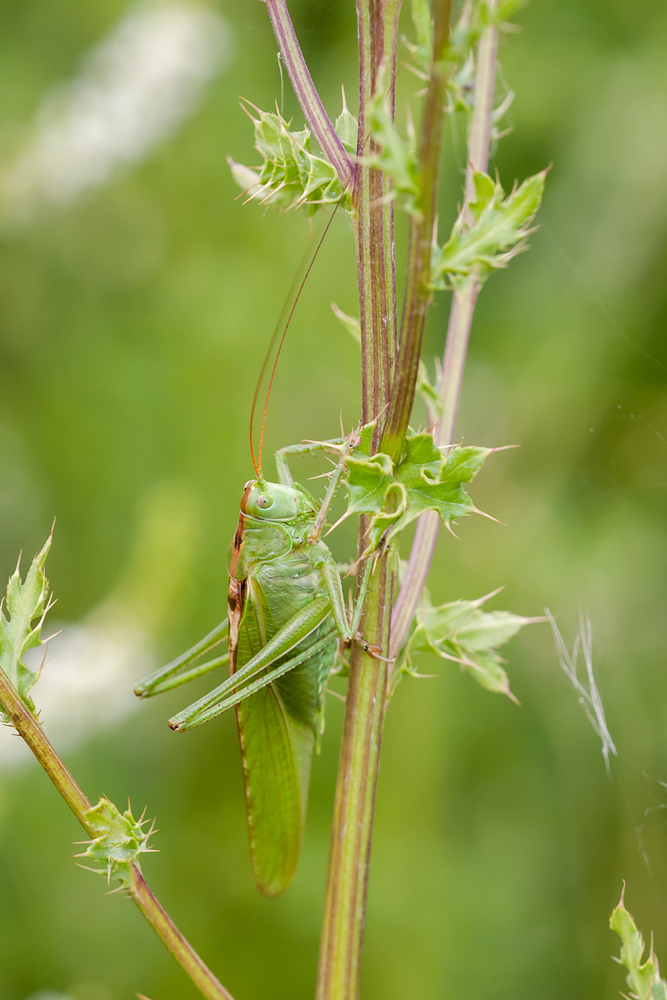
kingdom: Animalia
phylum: Arthropoda
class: Insecta
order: Orthoptera
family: Tettigoniidae
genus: Tettigonia
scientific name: Tettigonia viridissima
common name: Great green bush-cricket
